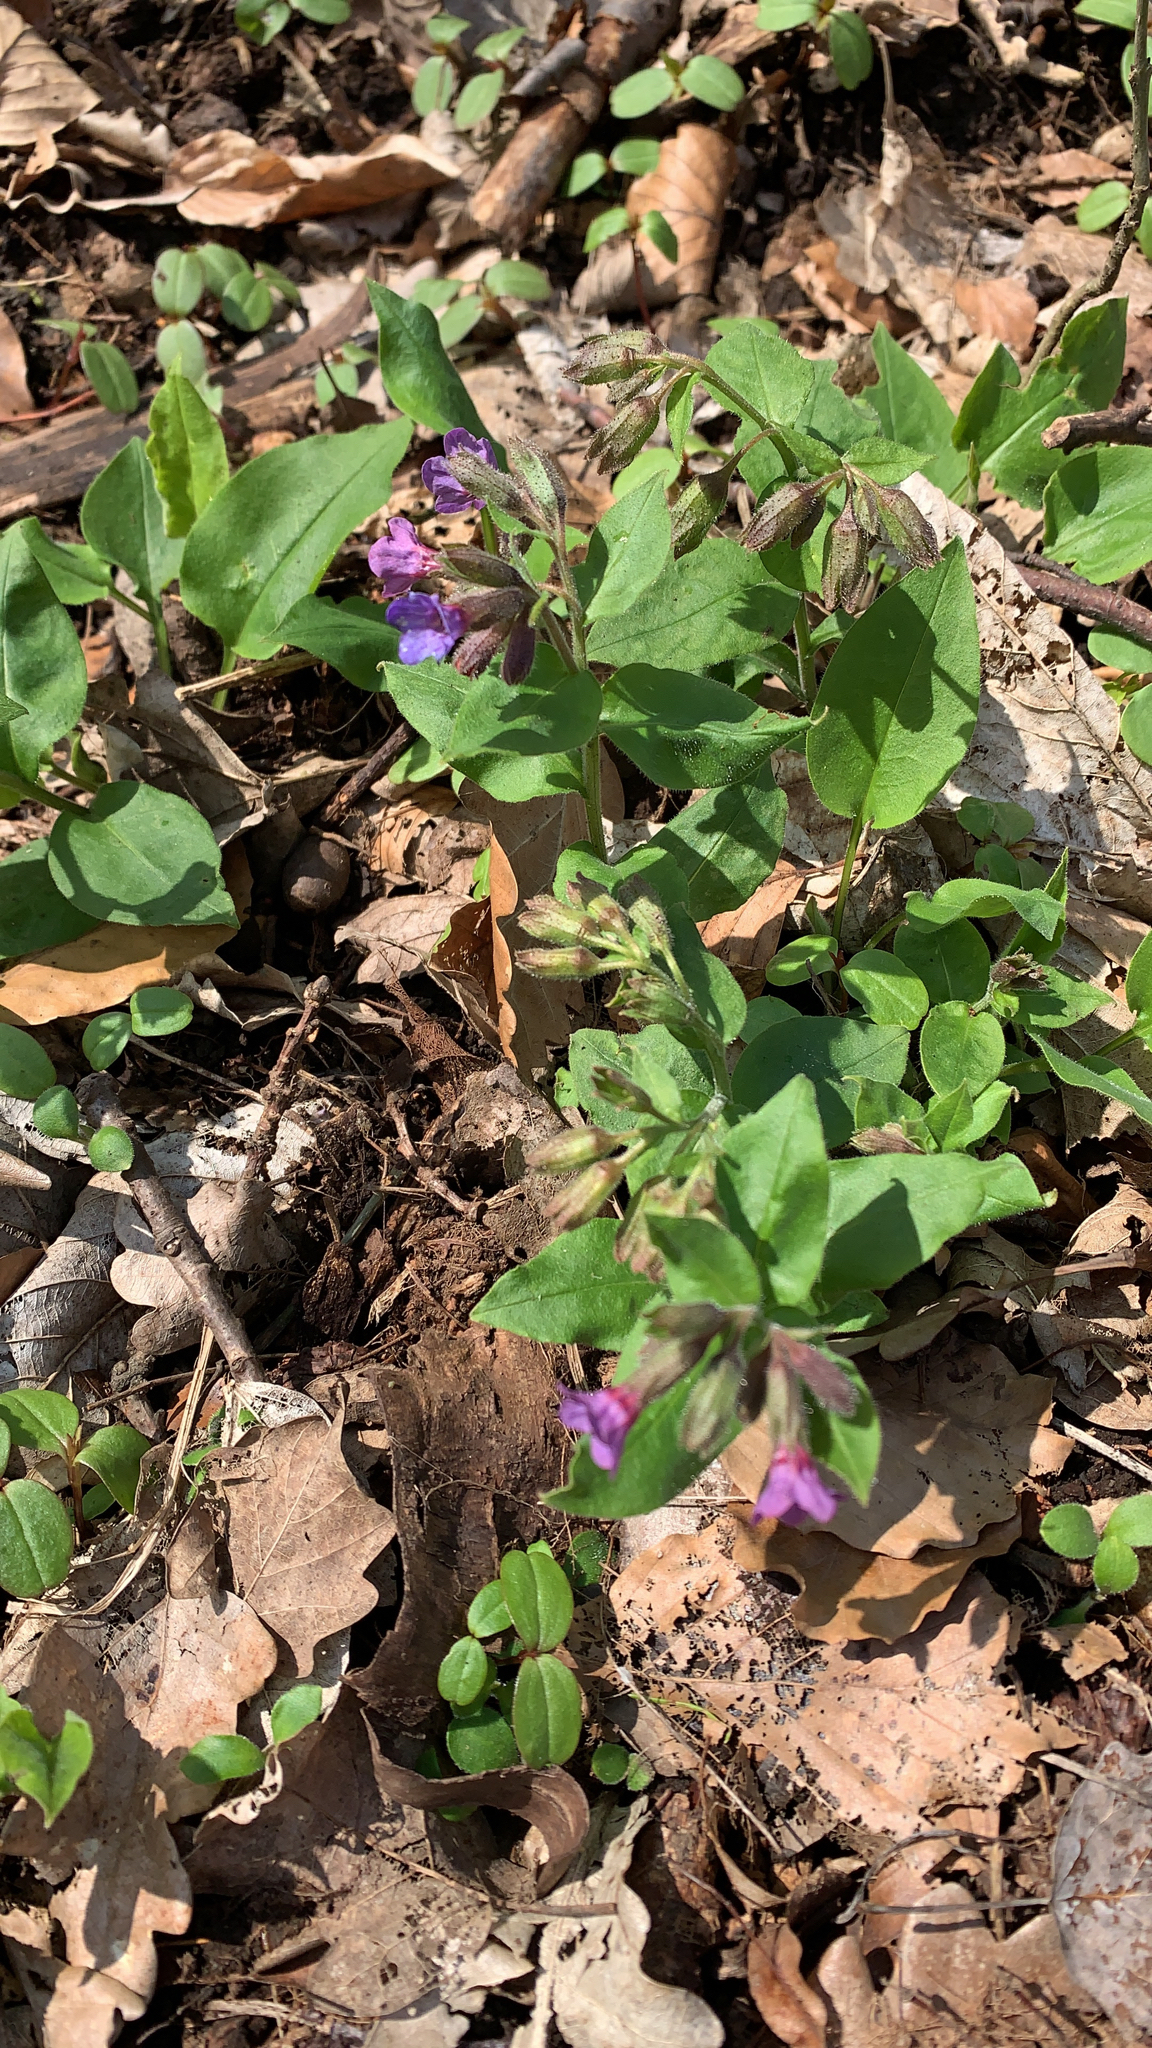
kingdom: Plantae
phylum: Tracheophyta
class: Magnoliopsida
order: Boraginales
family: Boraginaceae
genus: Pulmonaria
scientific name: Pulmonaria obscura
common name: Suffolk lungwort
